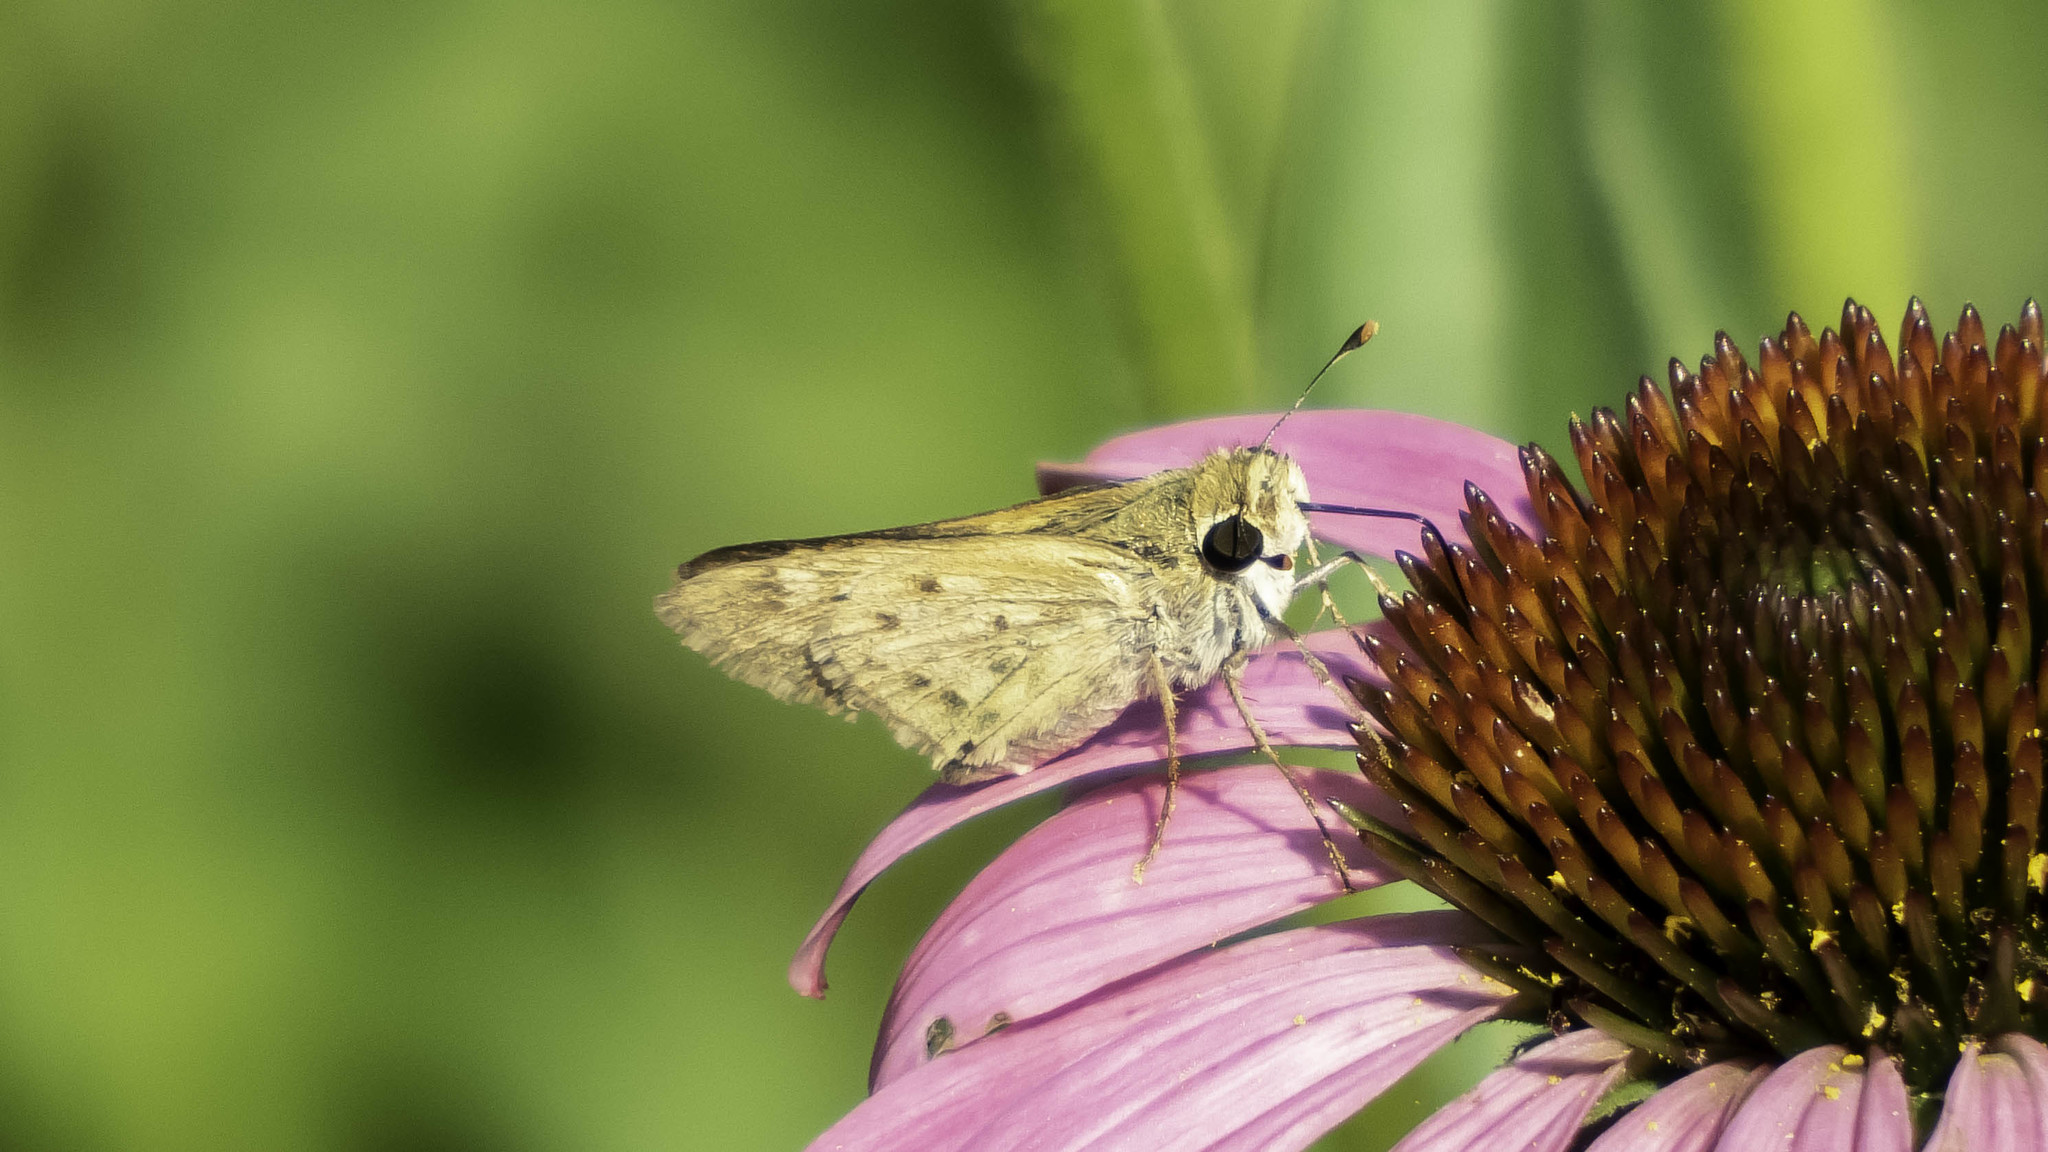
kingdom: Animalia
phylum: Arthropoda
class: Insecta
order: Lepidoptera
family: Hesperiidae
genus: Hylephila
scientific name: Hylephila phyleus
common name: Fiery skipper
